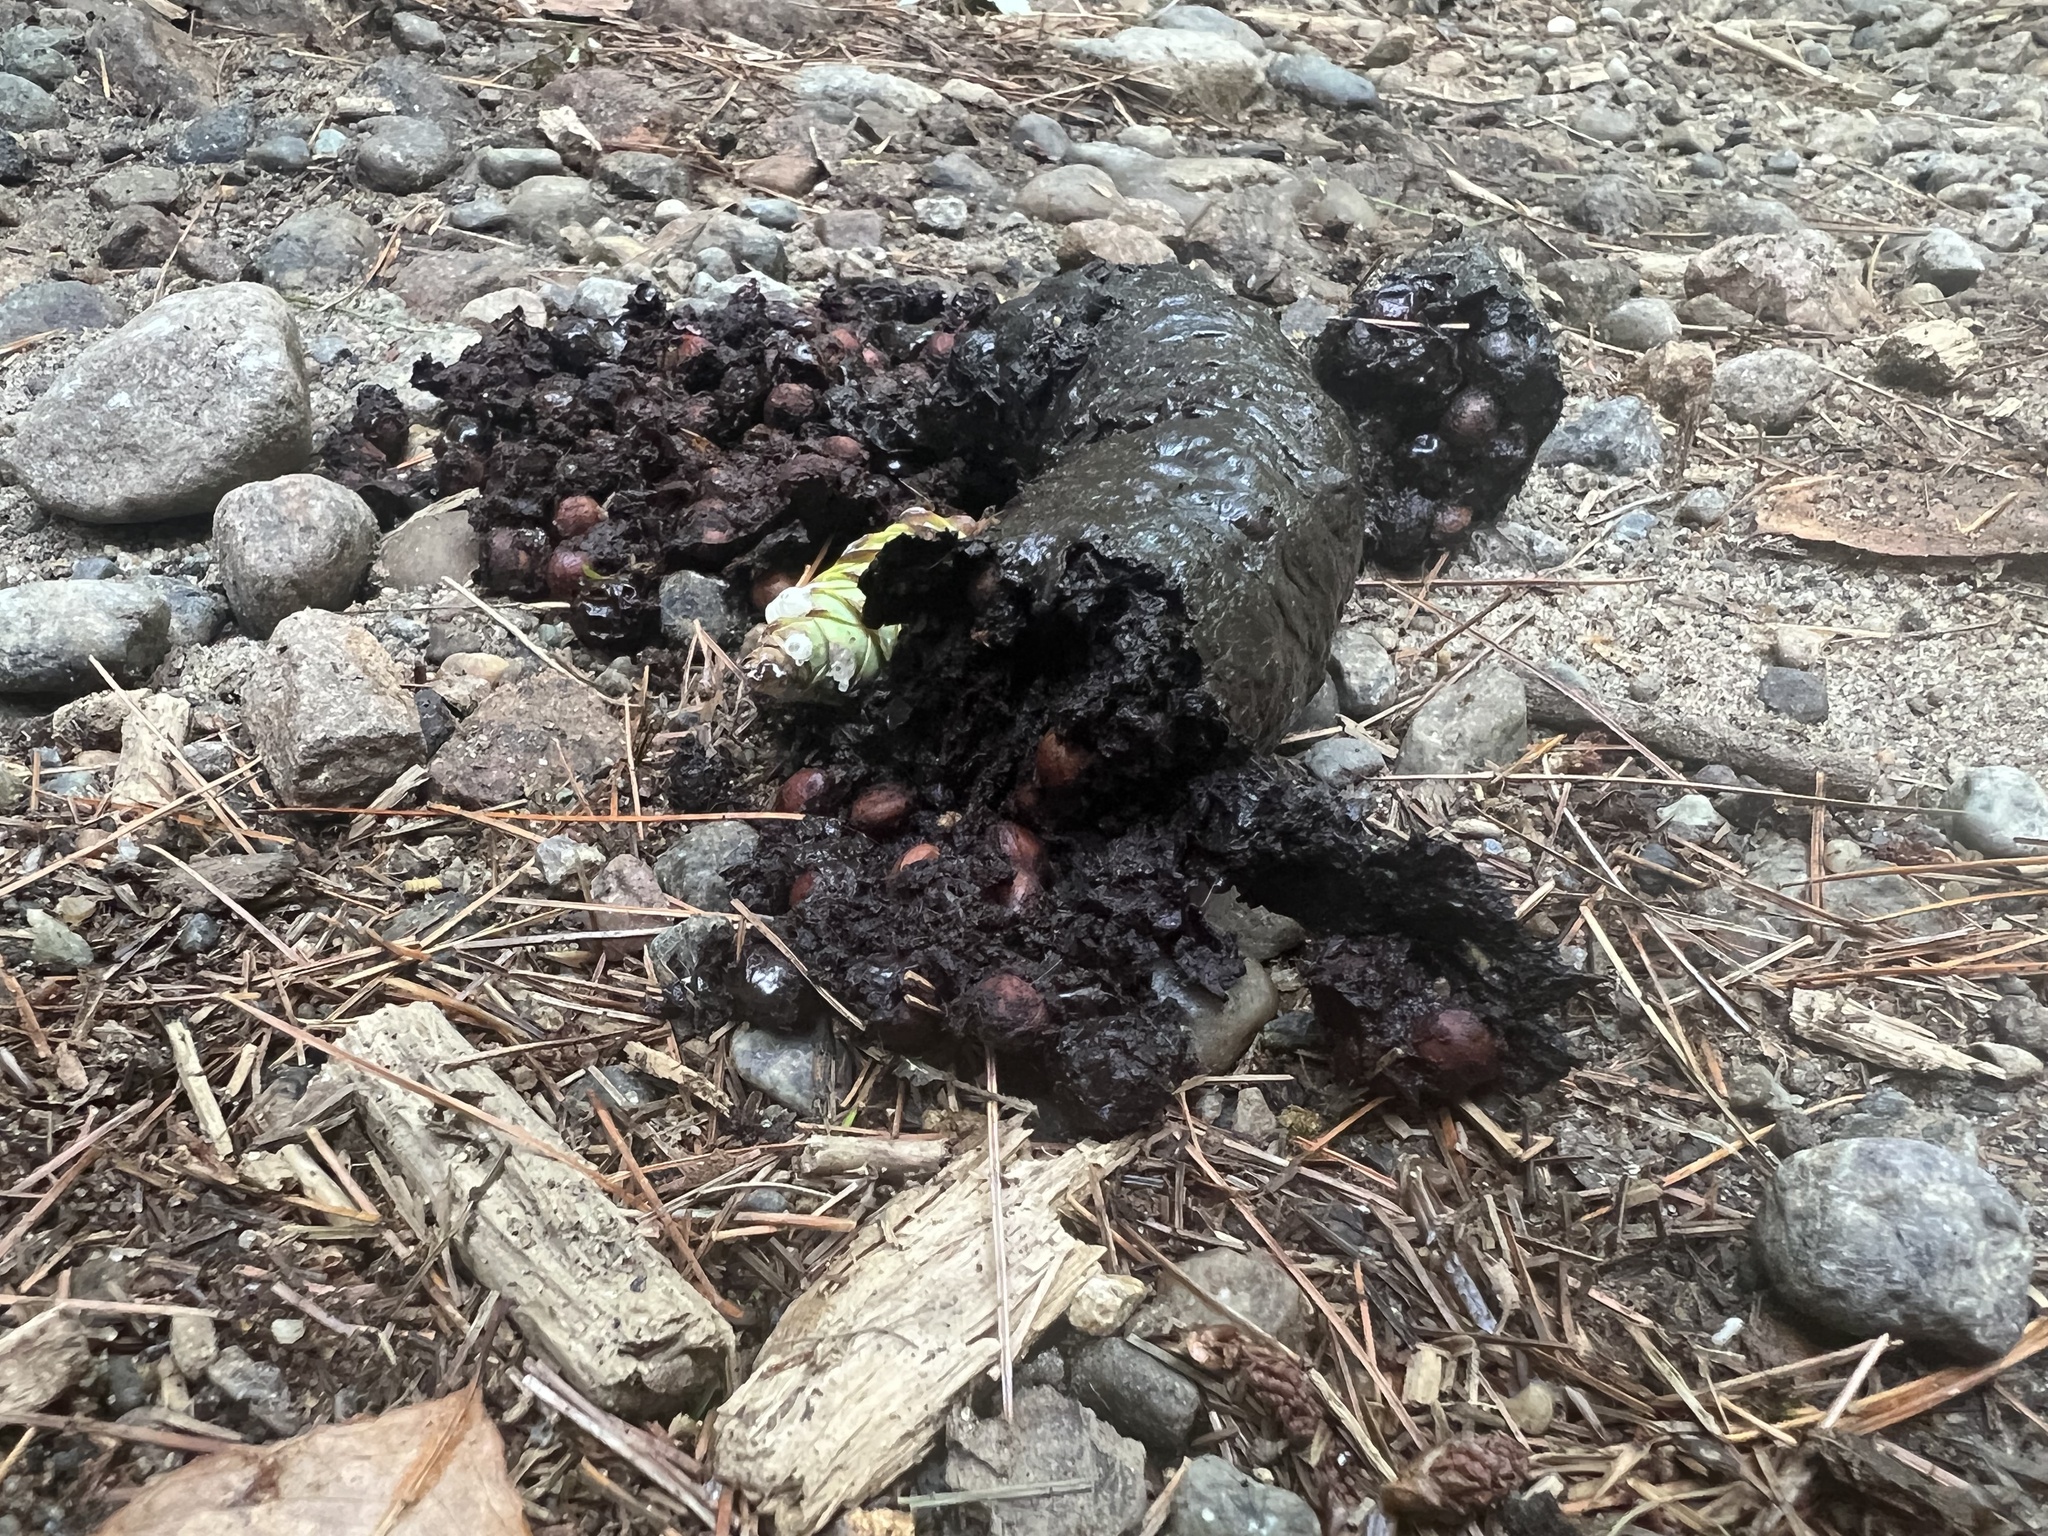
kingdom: Animalia
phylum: Chordata
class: Mammalia
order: Carnivora
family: Ursidae
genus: Ursus
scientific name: Ursus americanus
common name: American black bear
